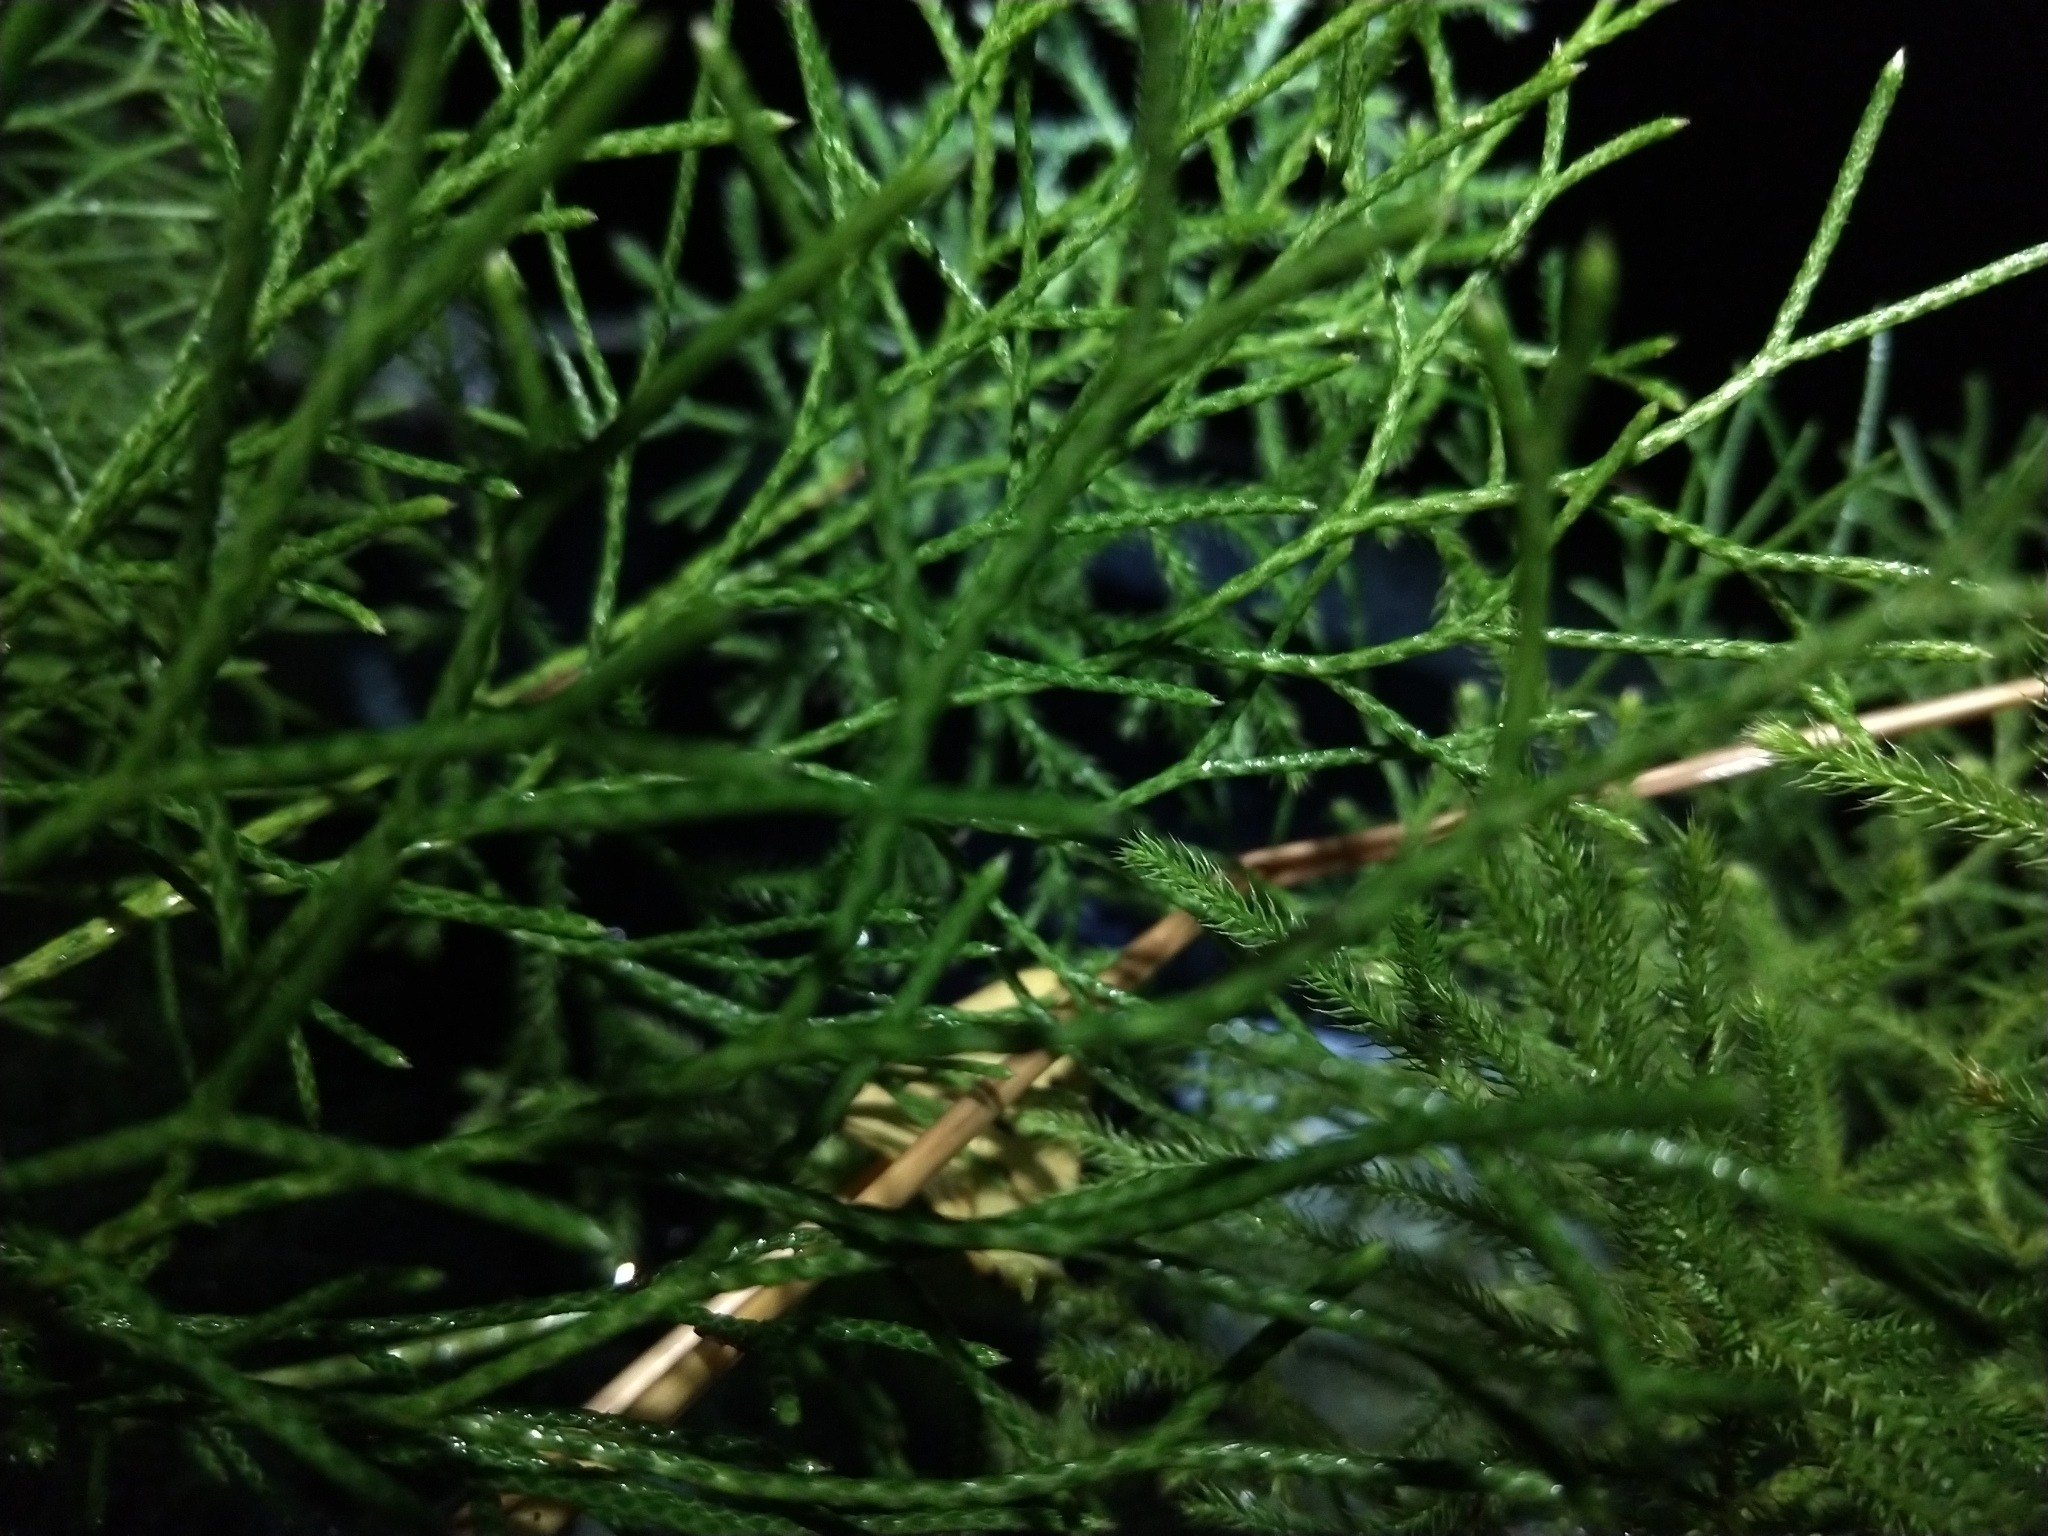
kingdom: Plantae
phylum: Tracheophyta
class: Lycopodiopsida
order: Lycopodiales
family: Lycopodiaceae
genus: Pseudolycopodium
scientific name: Pseudolycopodium densum
